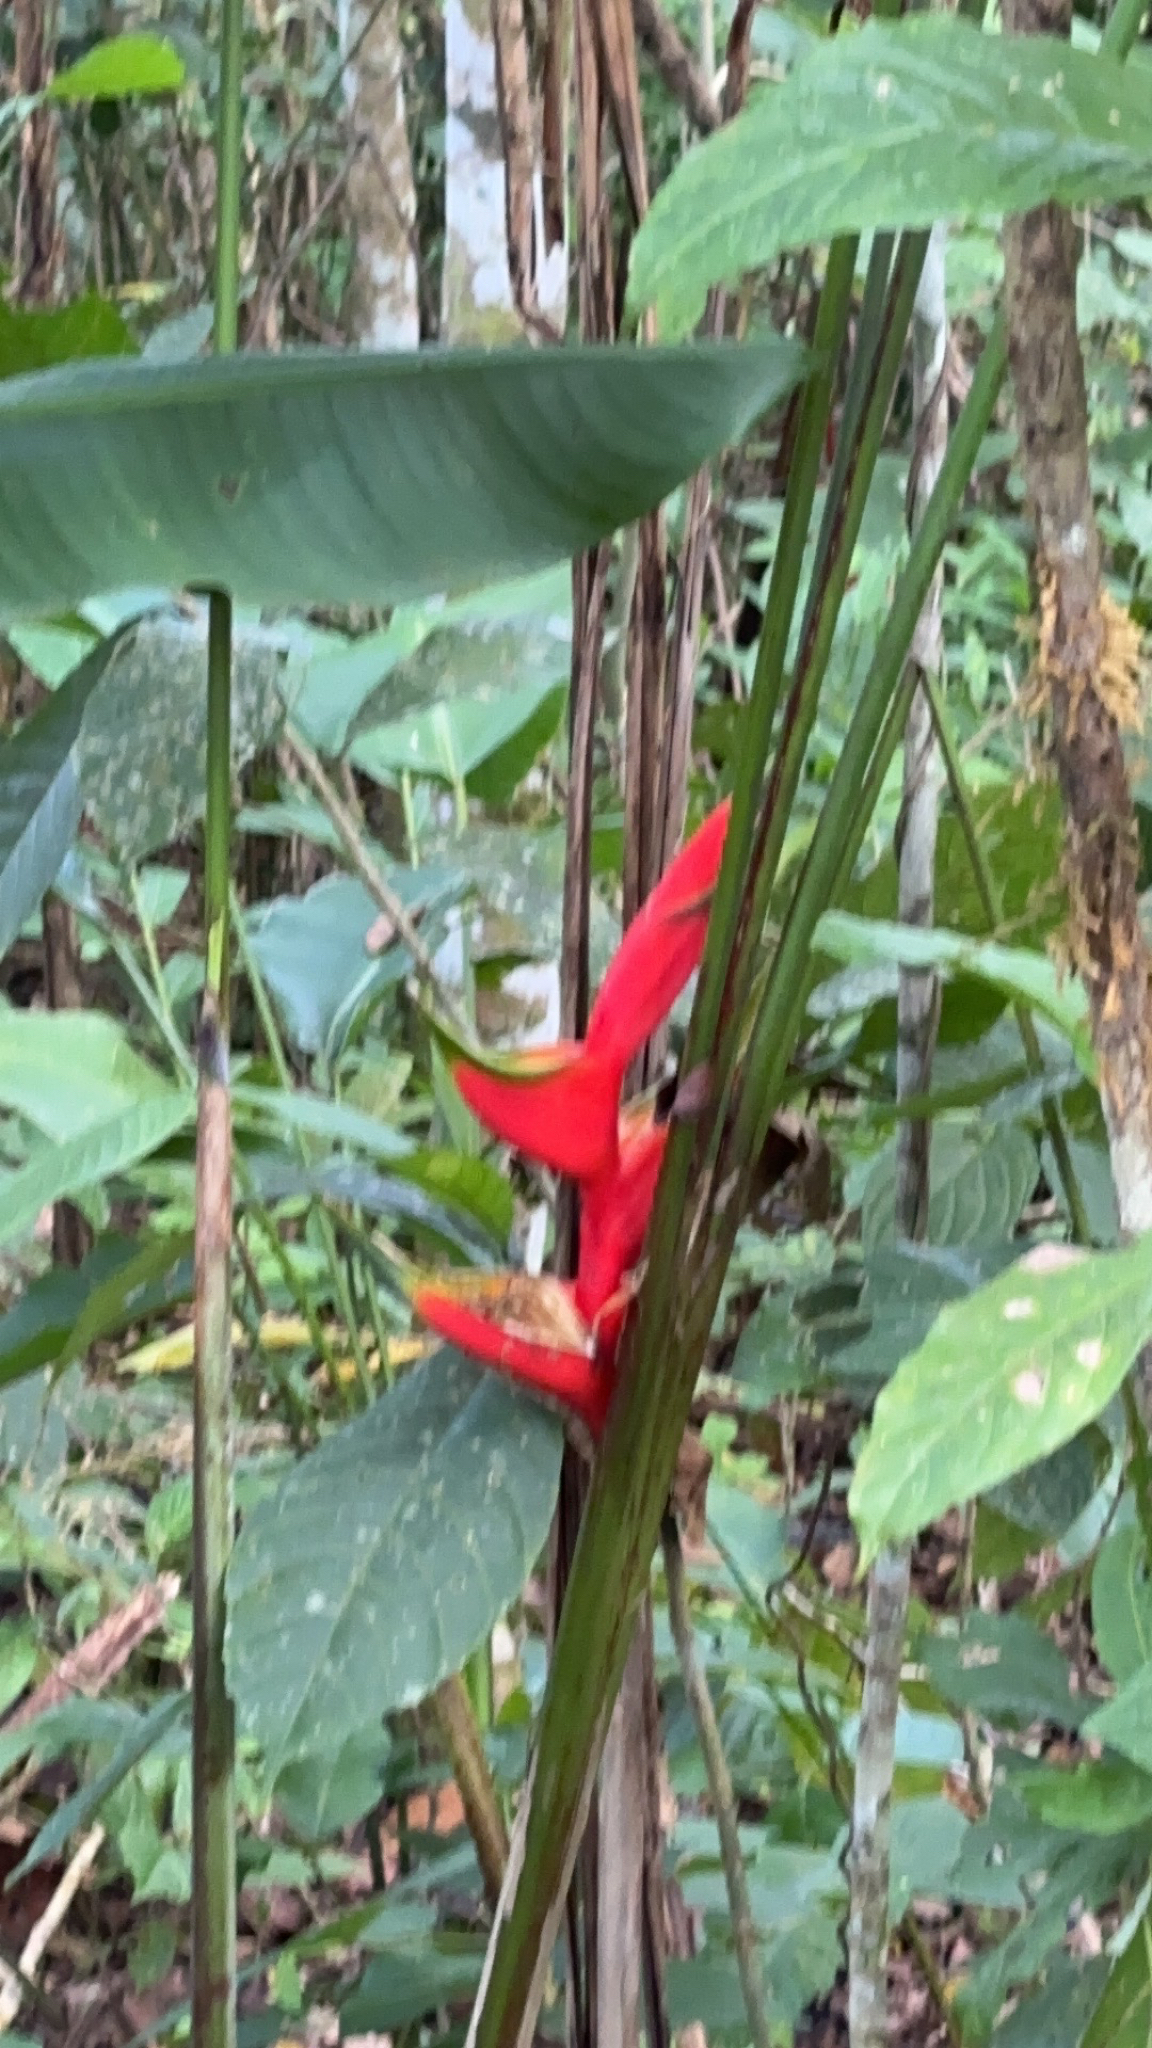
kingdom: Plantae
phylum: Tracheophyta
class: Liliopsida
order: Zingiberales
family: Heliconiaceae
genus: Heliconia
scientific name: Heliconia bihai
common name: Macaw flower
